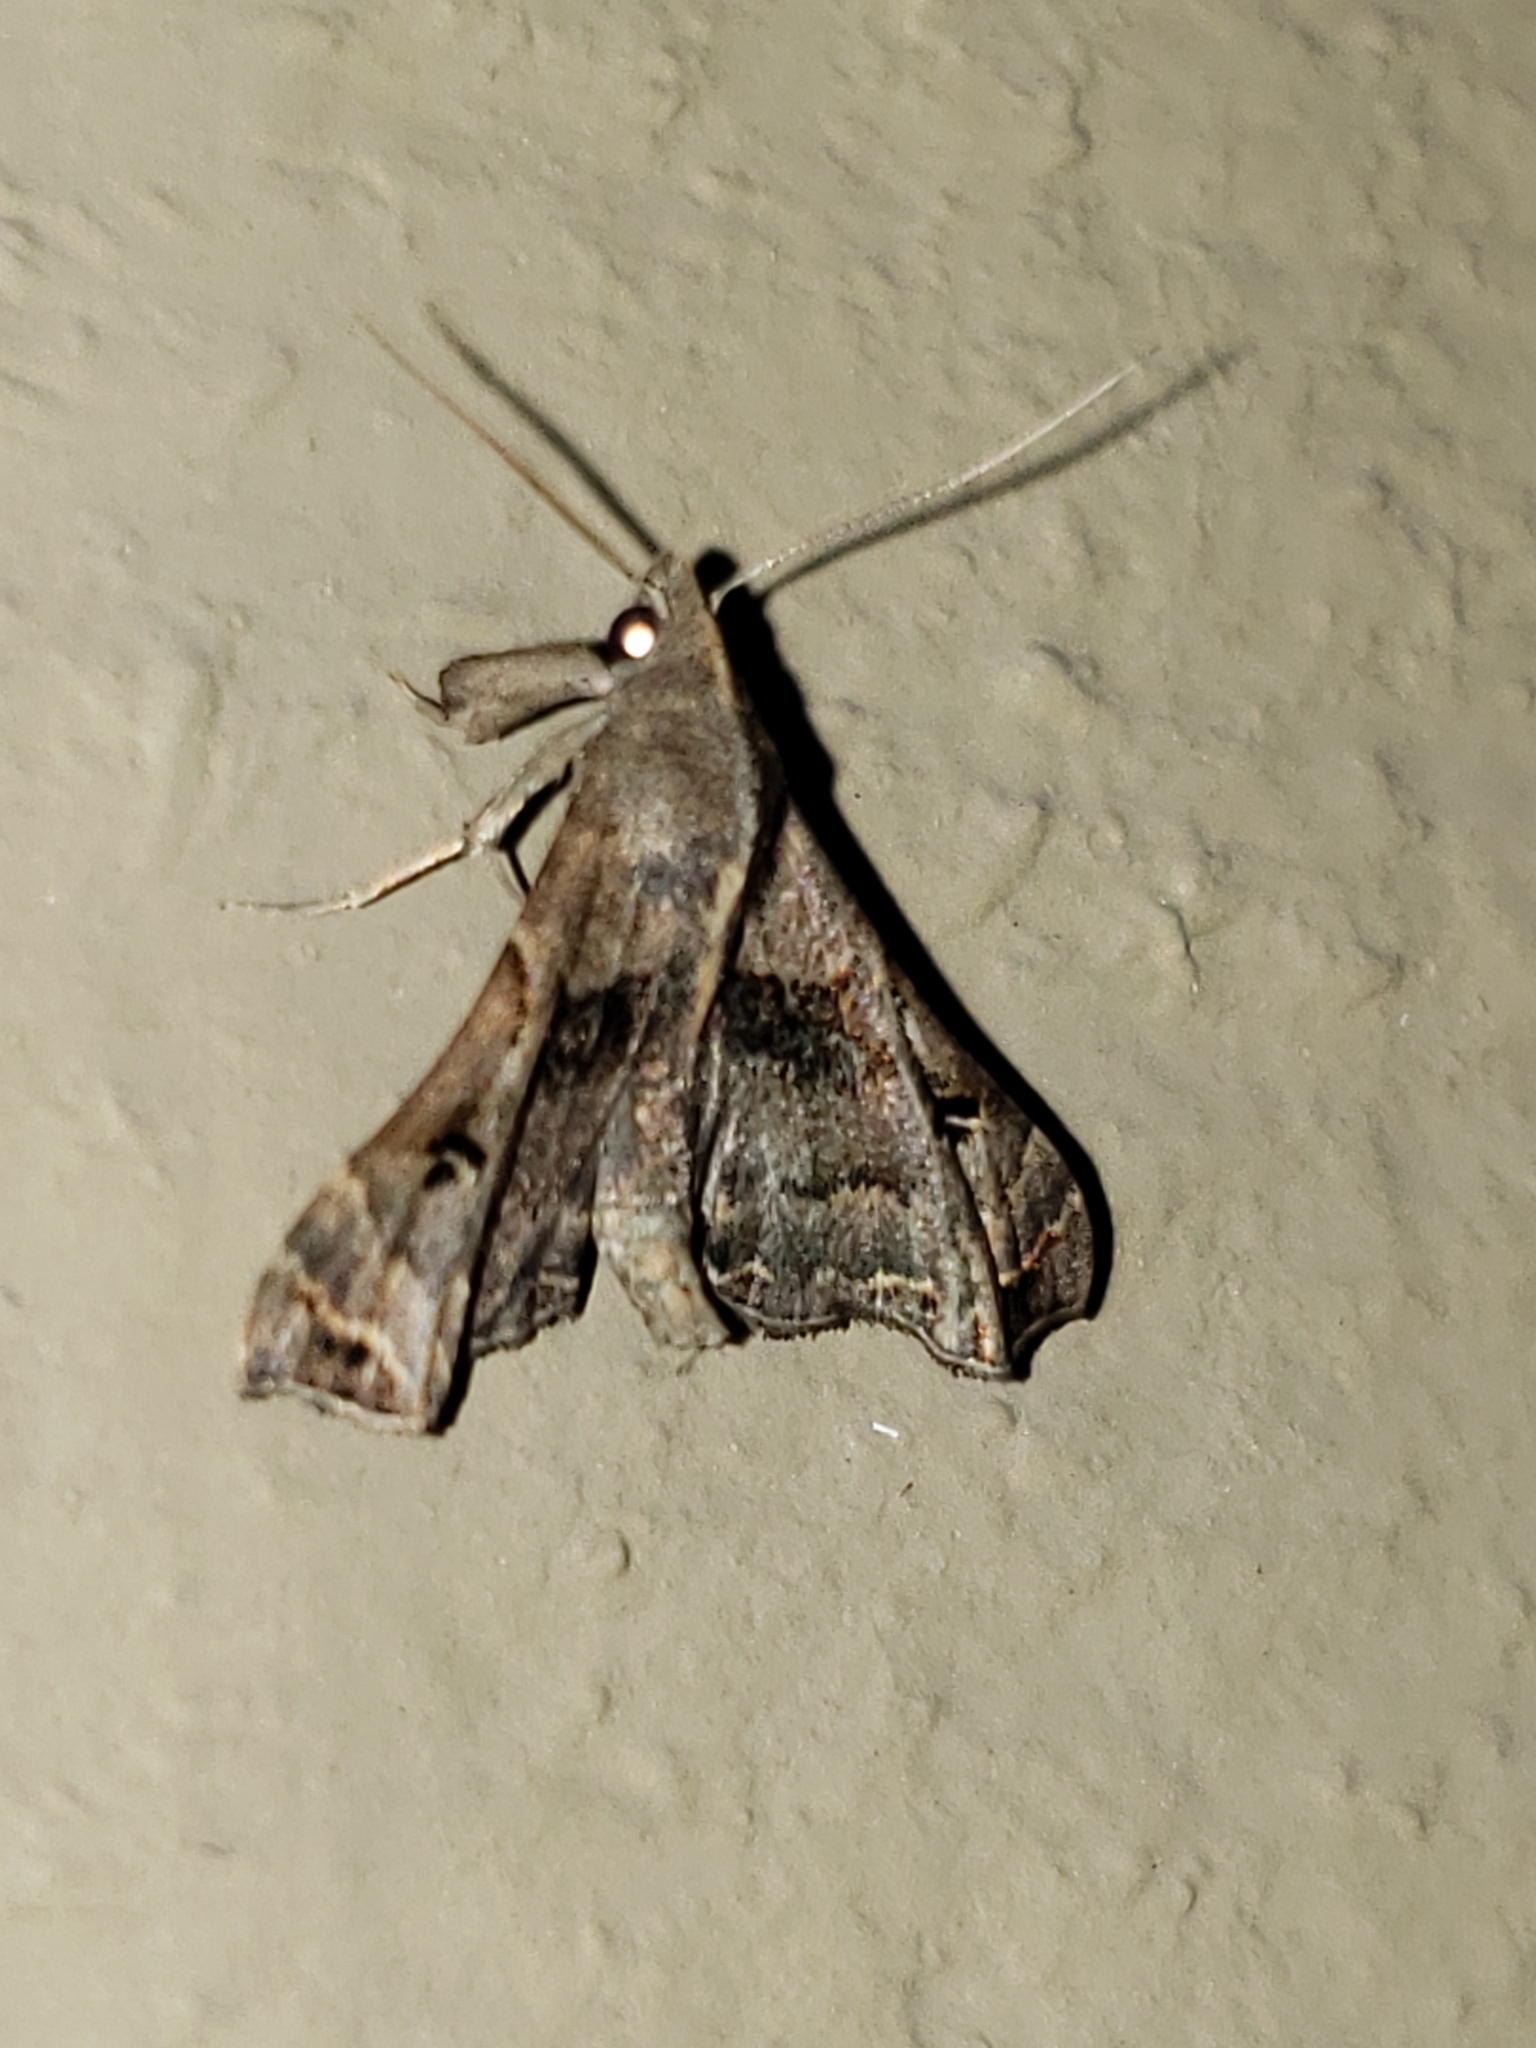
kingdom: Animalia
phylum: Arthropoda
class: Insecta
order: Lepidoptera
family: Erebidae
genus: Palthis
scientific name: Palthis asopialis
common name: Faint-spotted palthis moth
